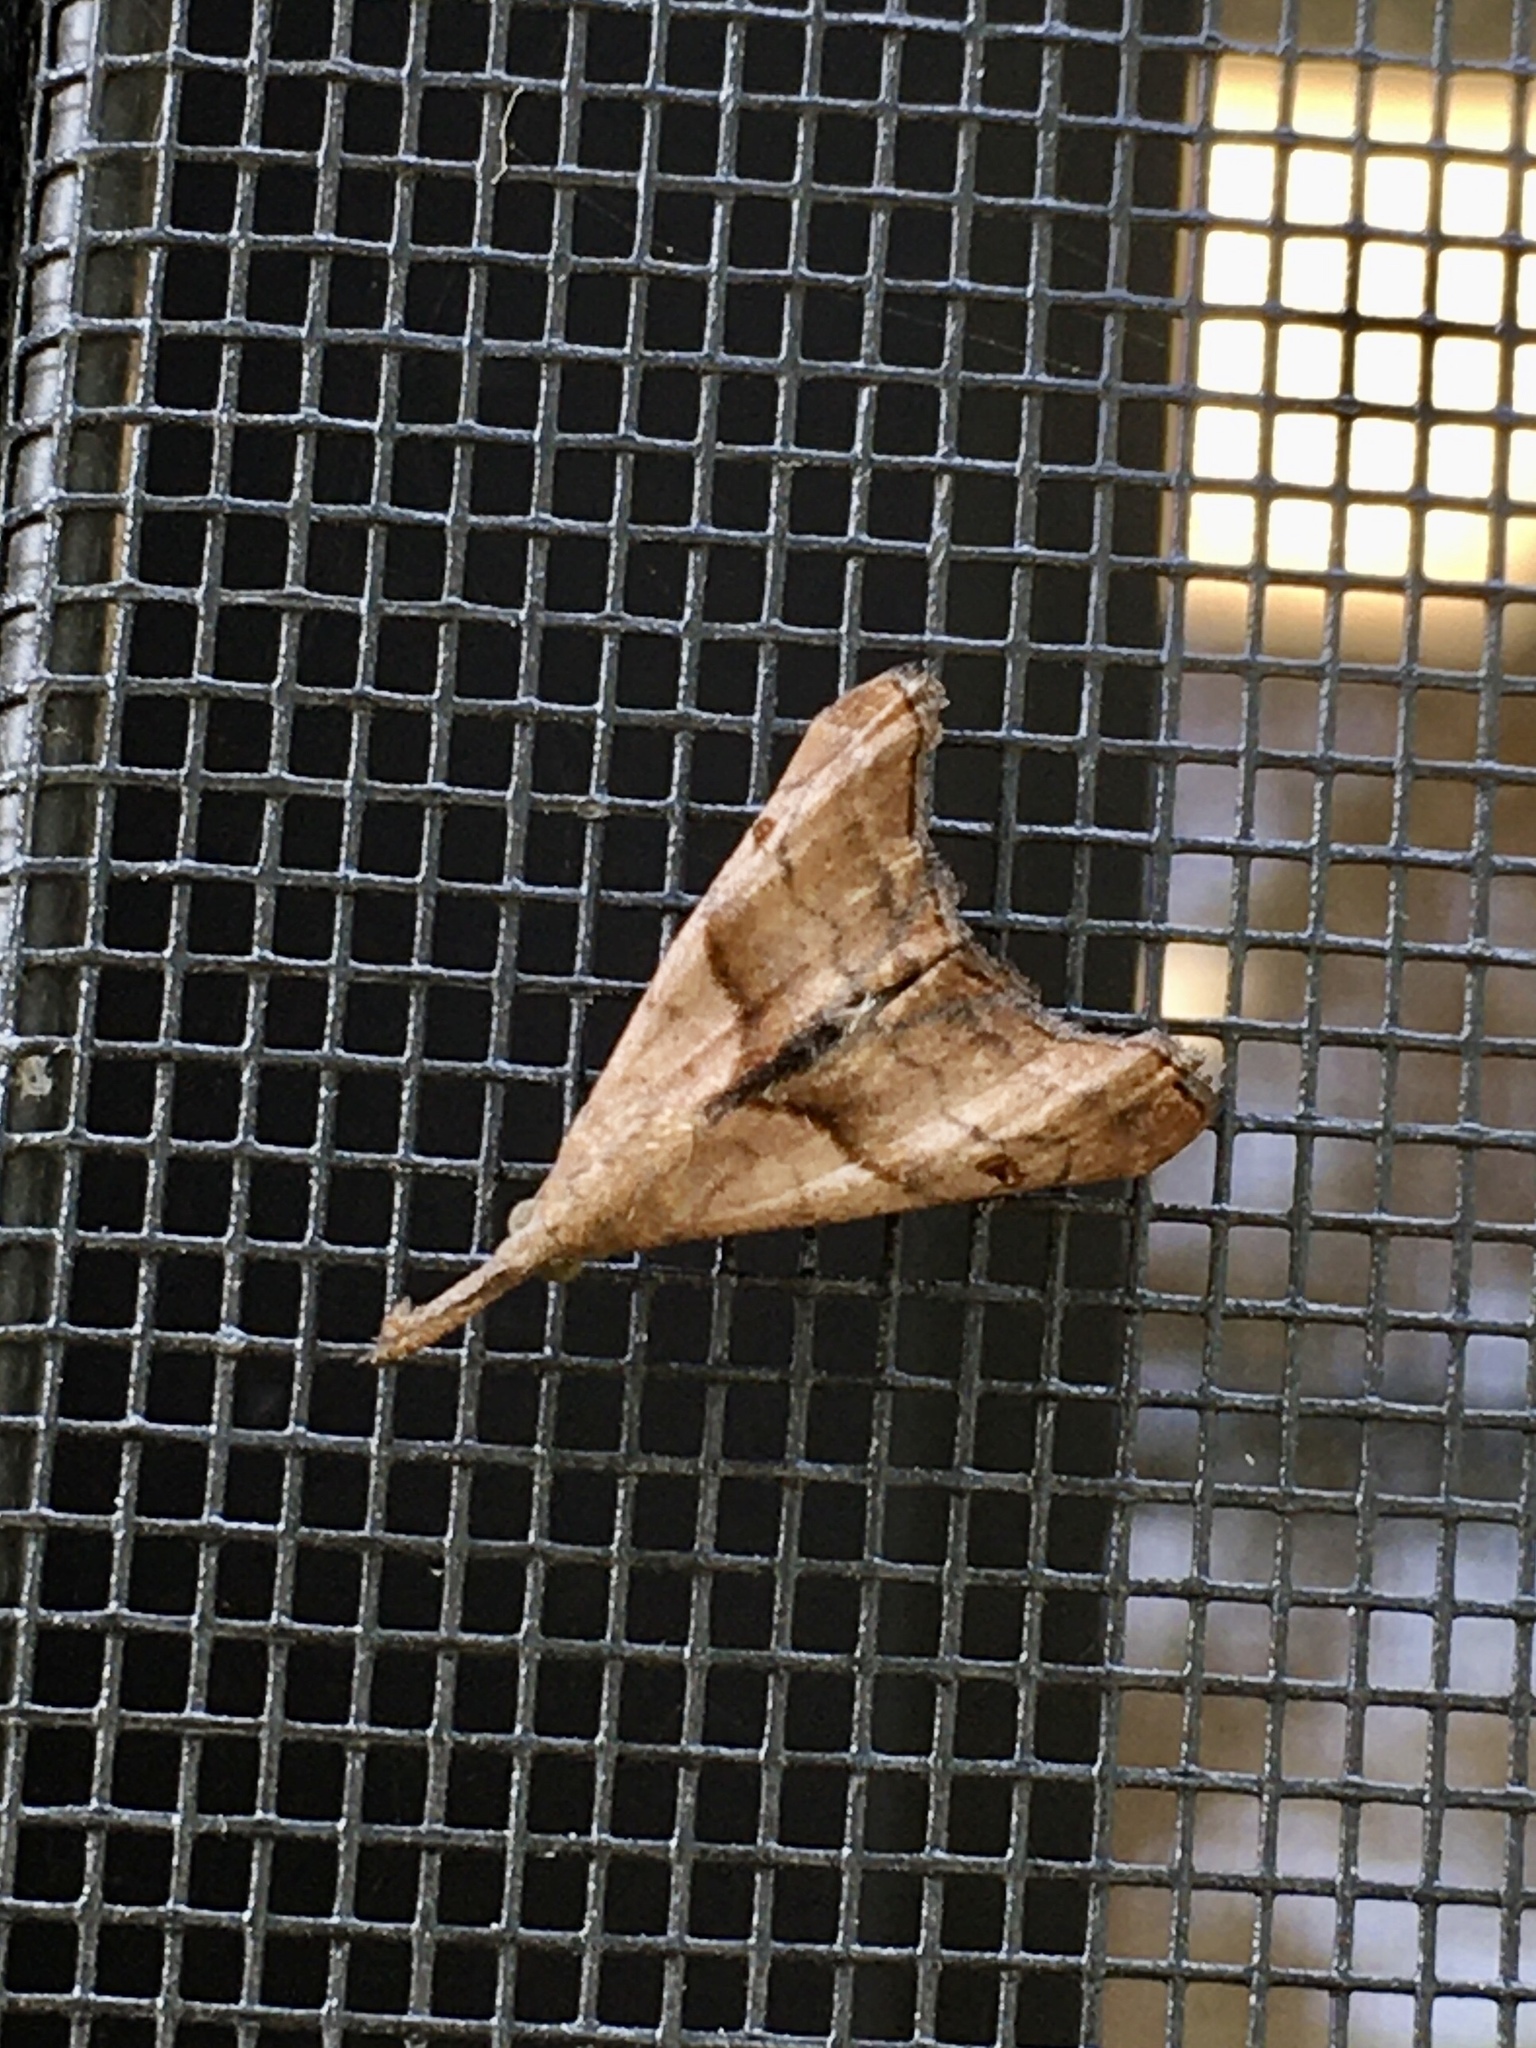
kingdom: Animalia
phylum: Arthropoda
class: Insecta
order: Lepidoptera
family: Erebidae
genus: Palthis
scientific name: Palthis angulalis
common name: Dark-spotted palthis moth
